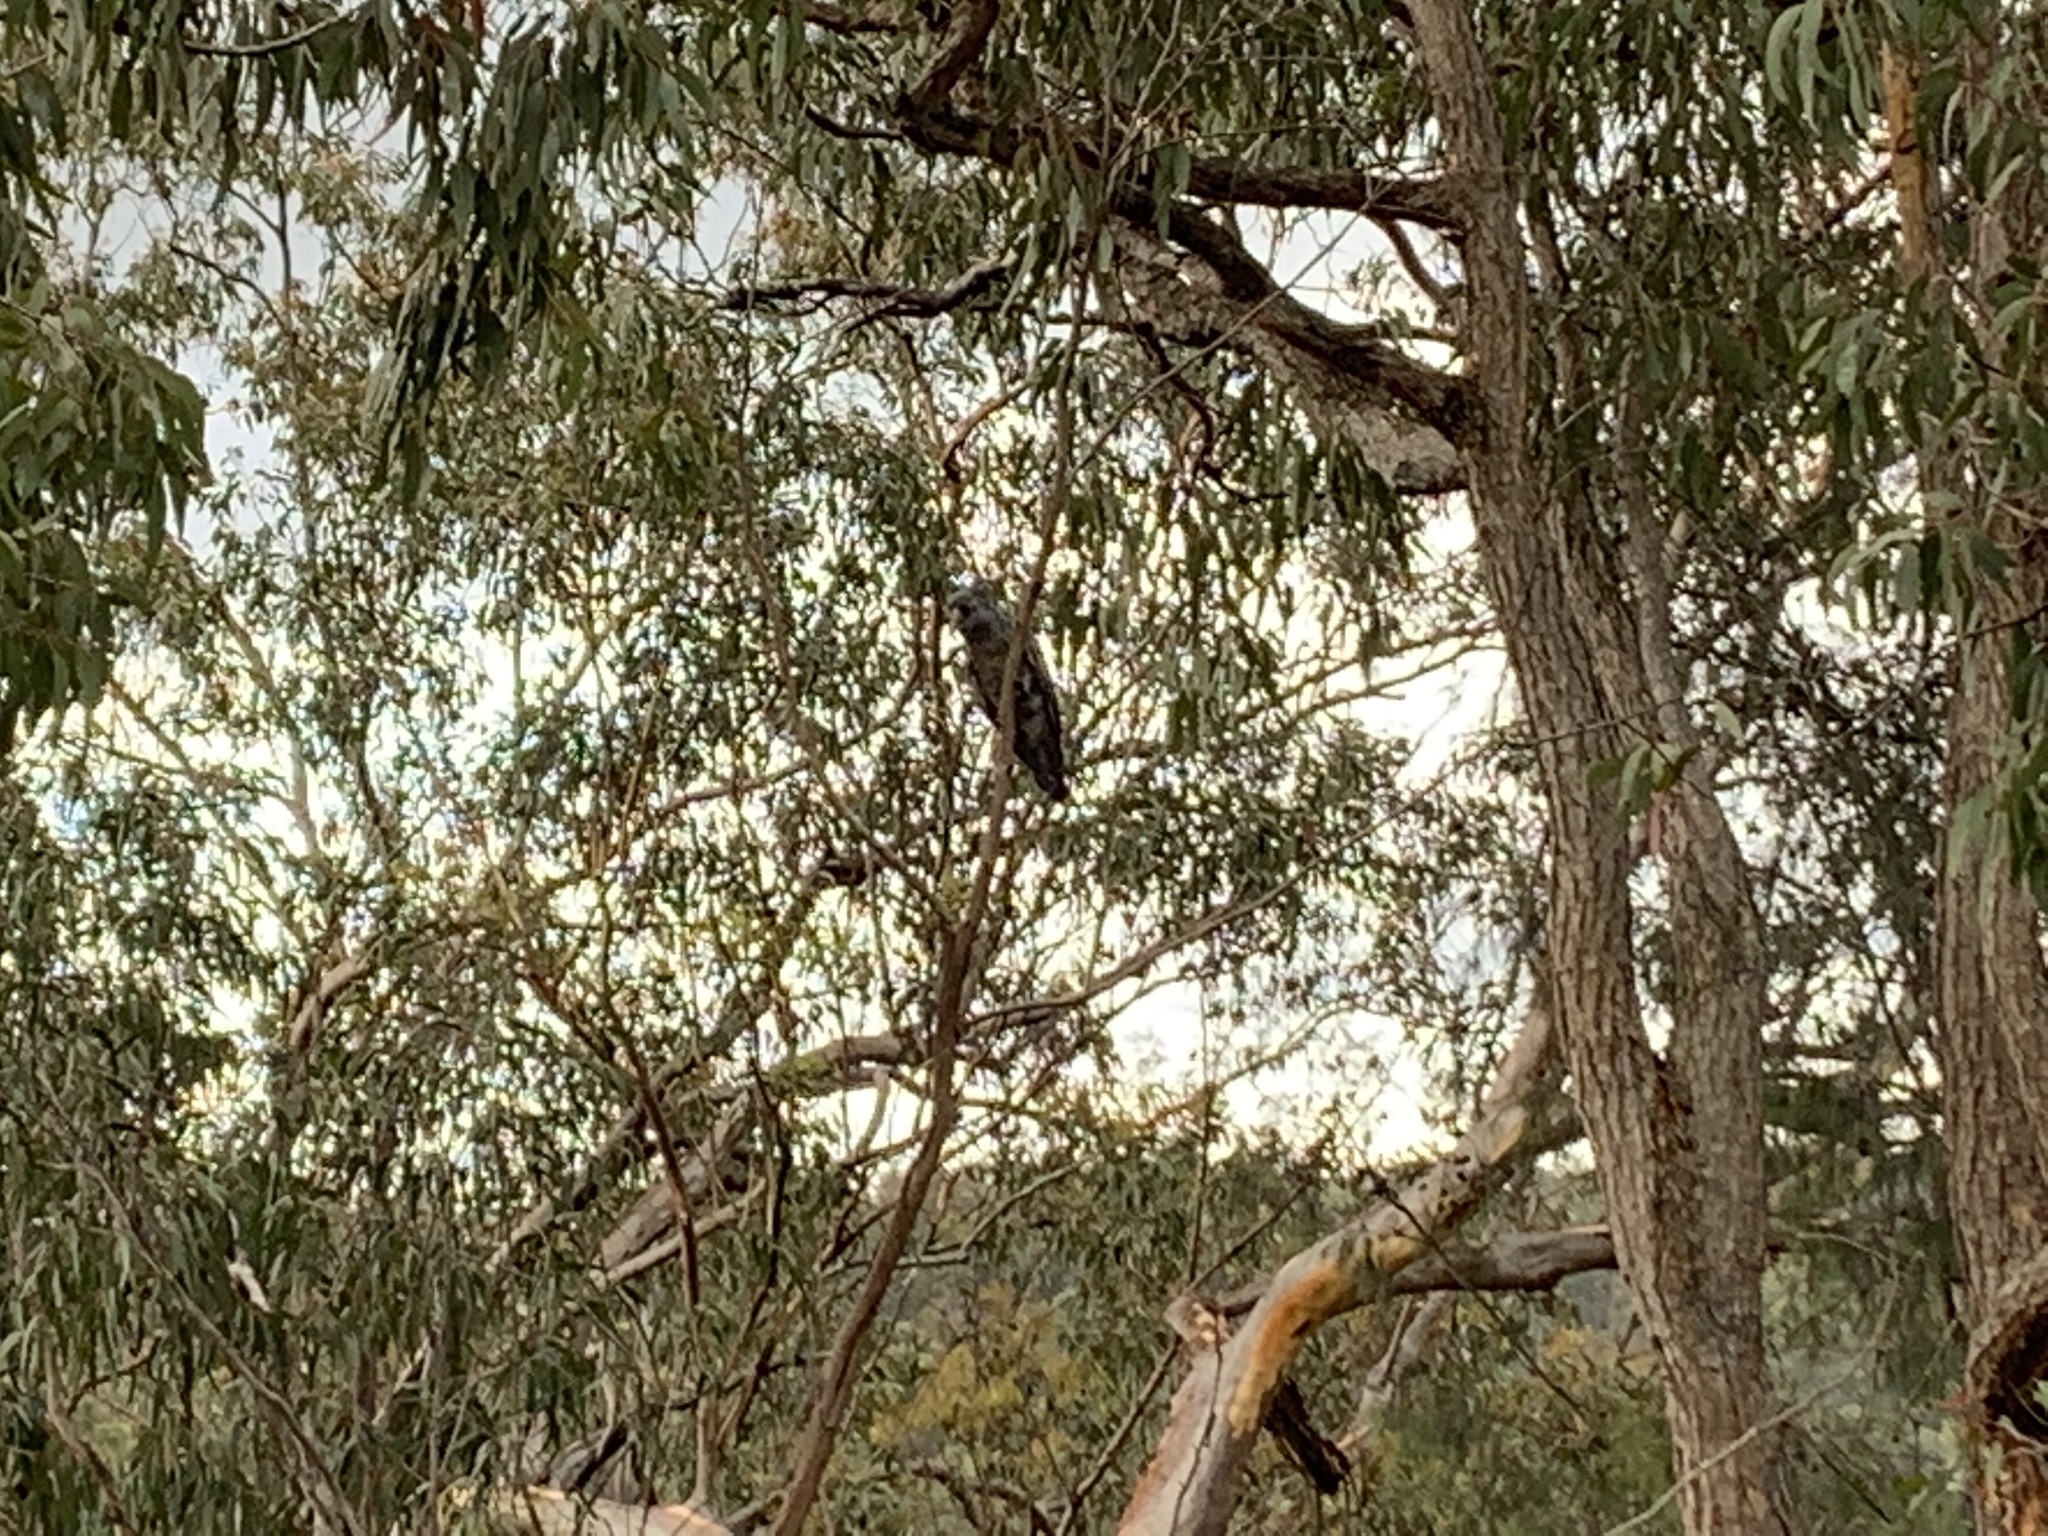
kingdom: Animalia
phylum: Chordata
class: Aves
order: Psittaciformes
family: Psittacidae
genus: Callocephalon
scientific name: Callocephalon fimbriatum
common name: Gang-gang cockatoo
